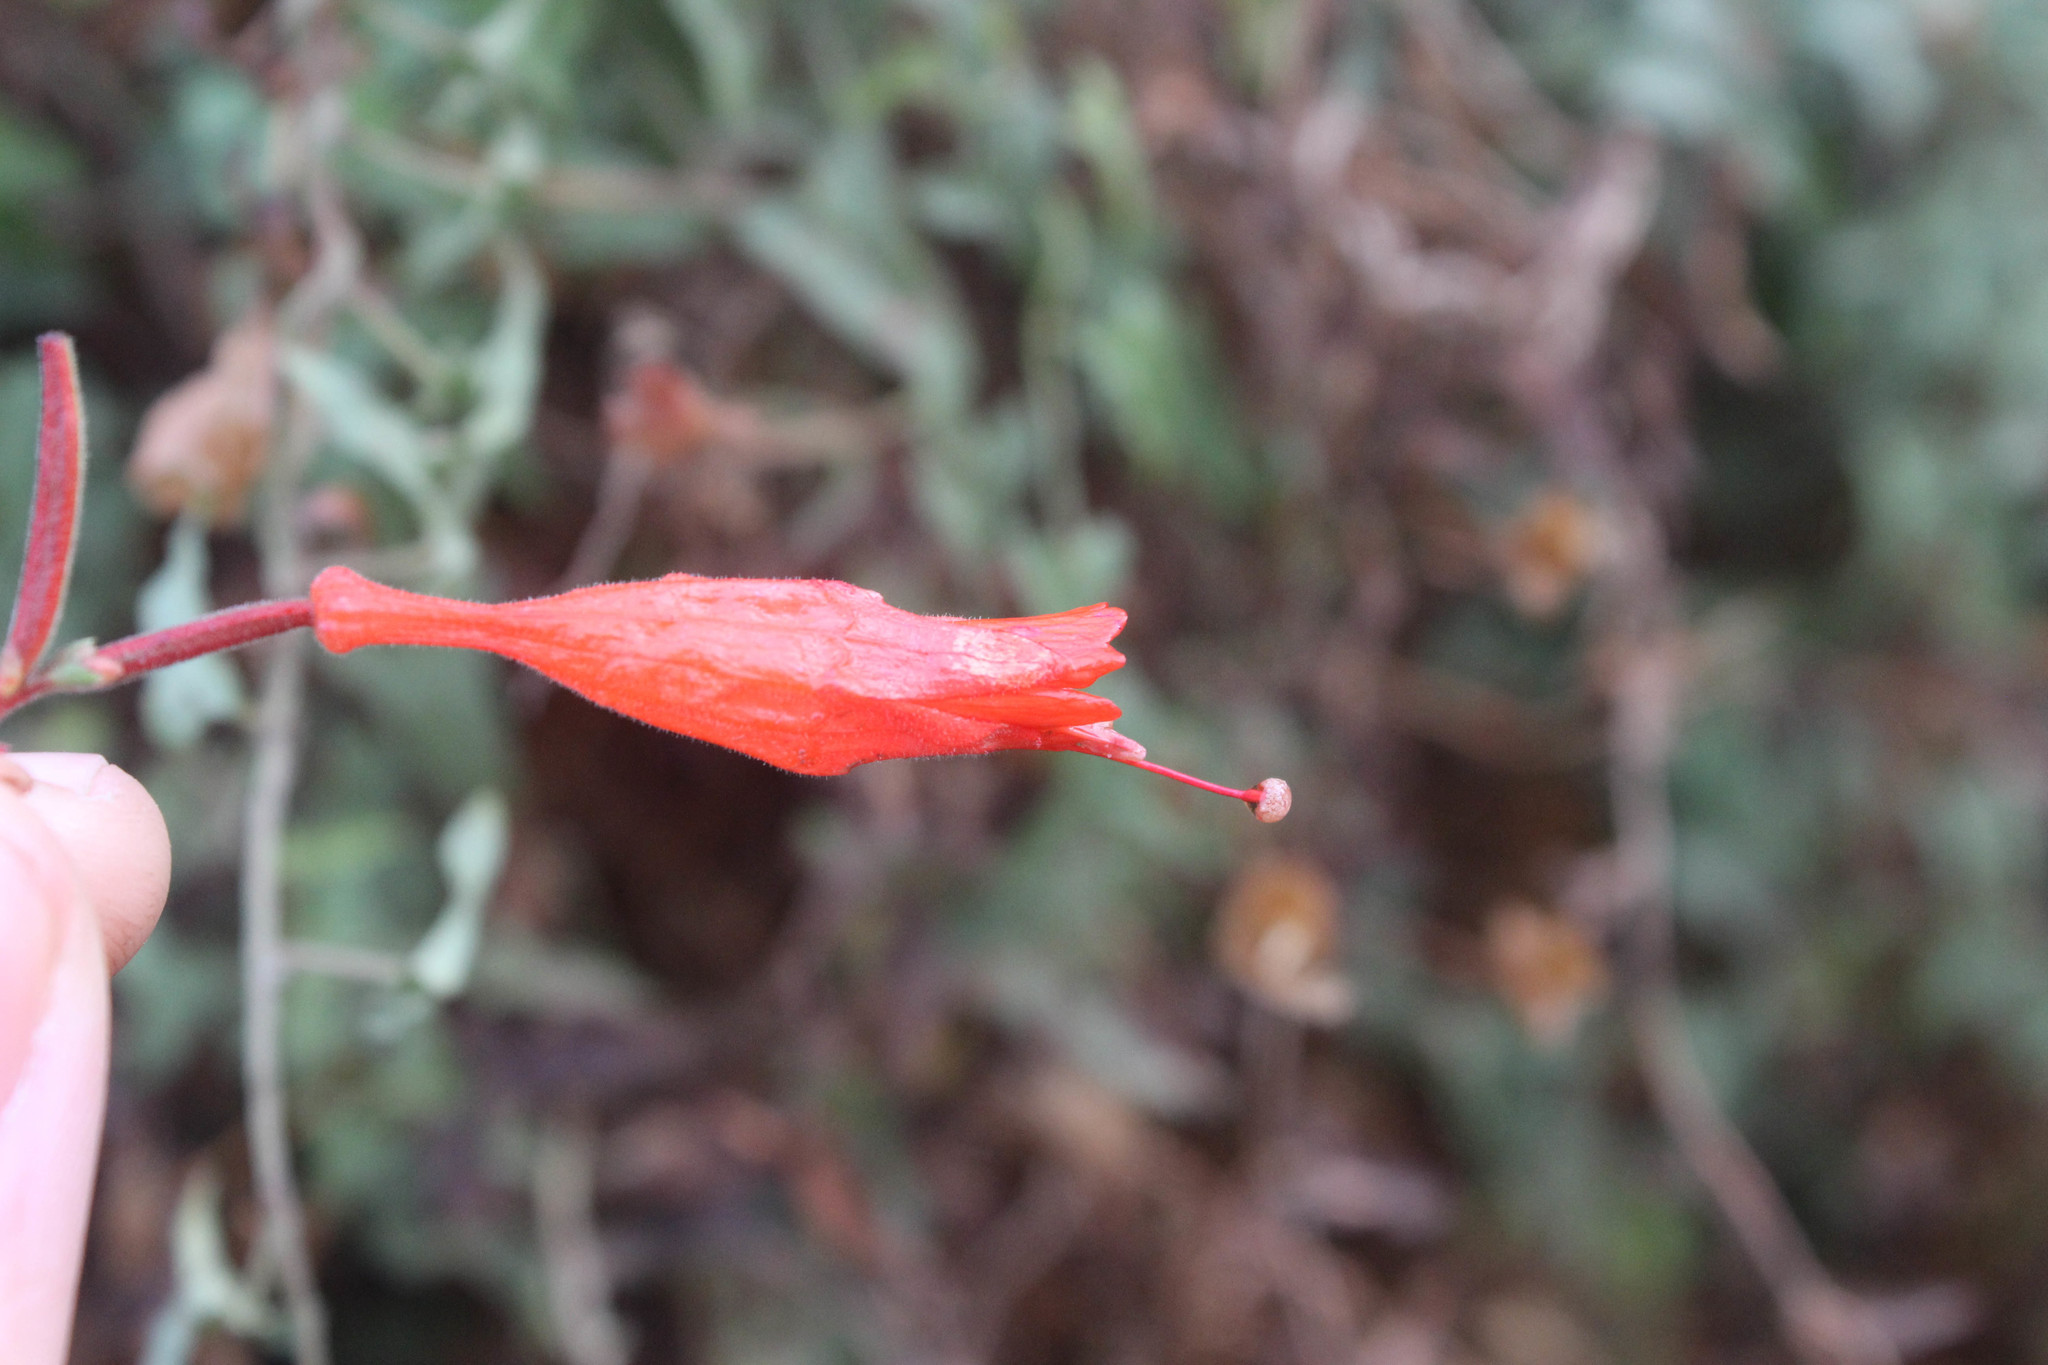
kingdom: Plantae
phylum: Tracheophyta
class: Magnoliopsida
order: Myrtales
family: Onagraceae
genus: Epilobium
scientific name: Epilobium canum
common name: California-fuchsia
